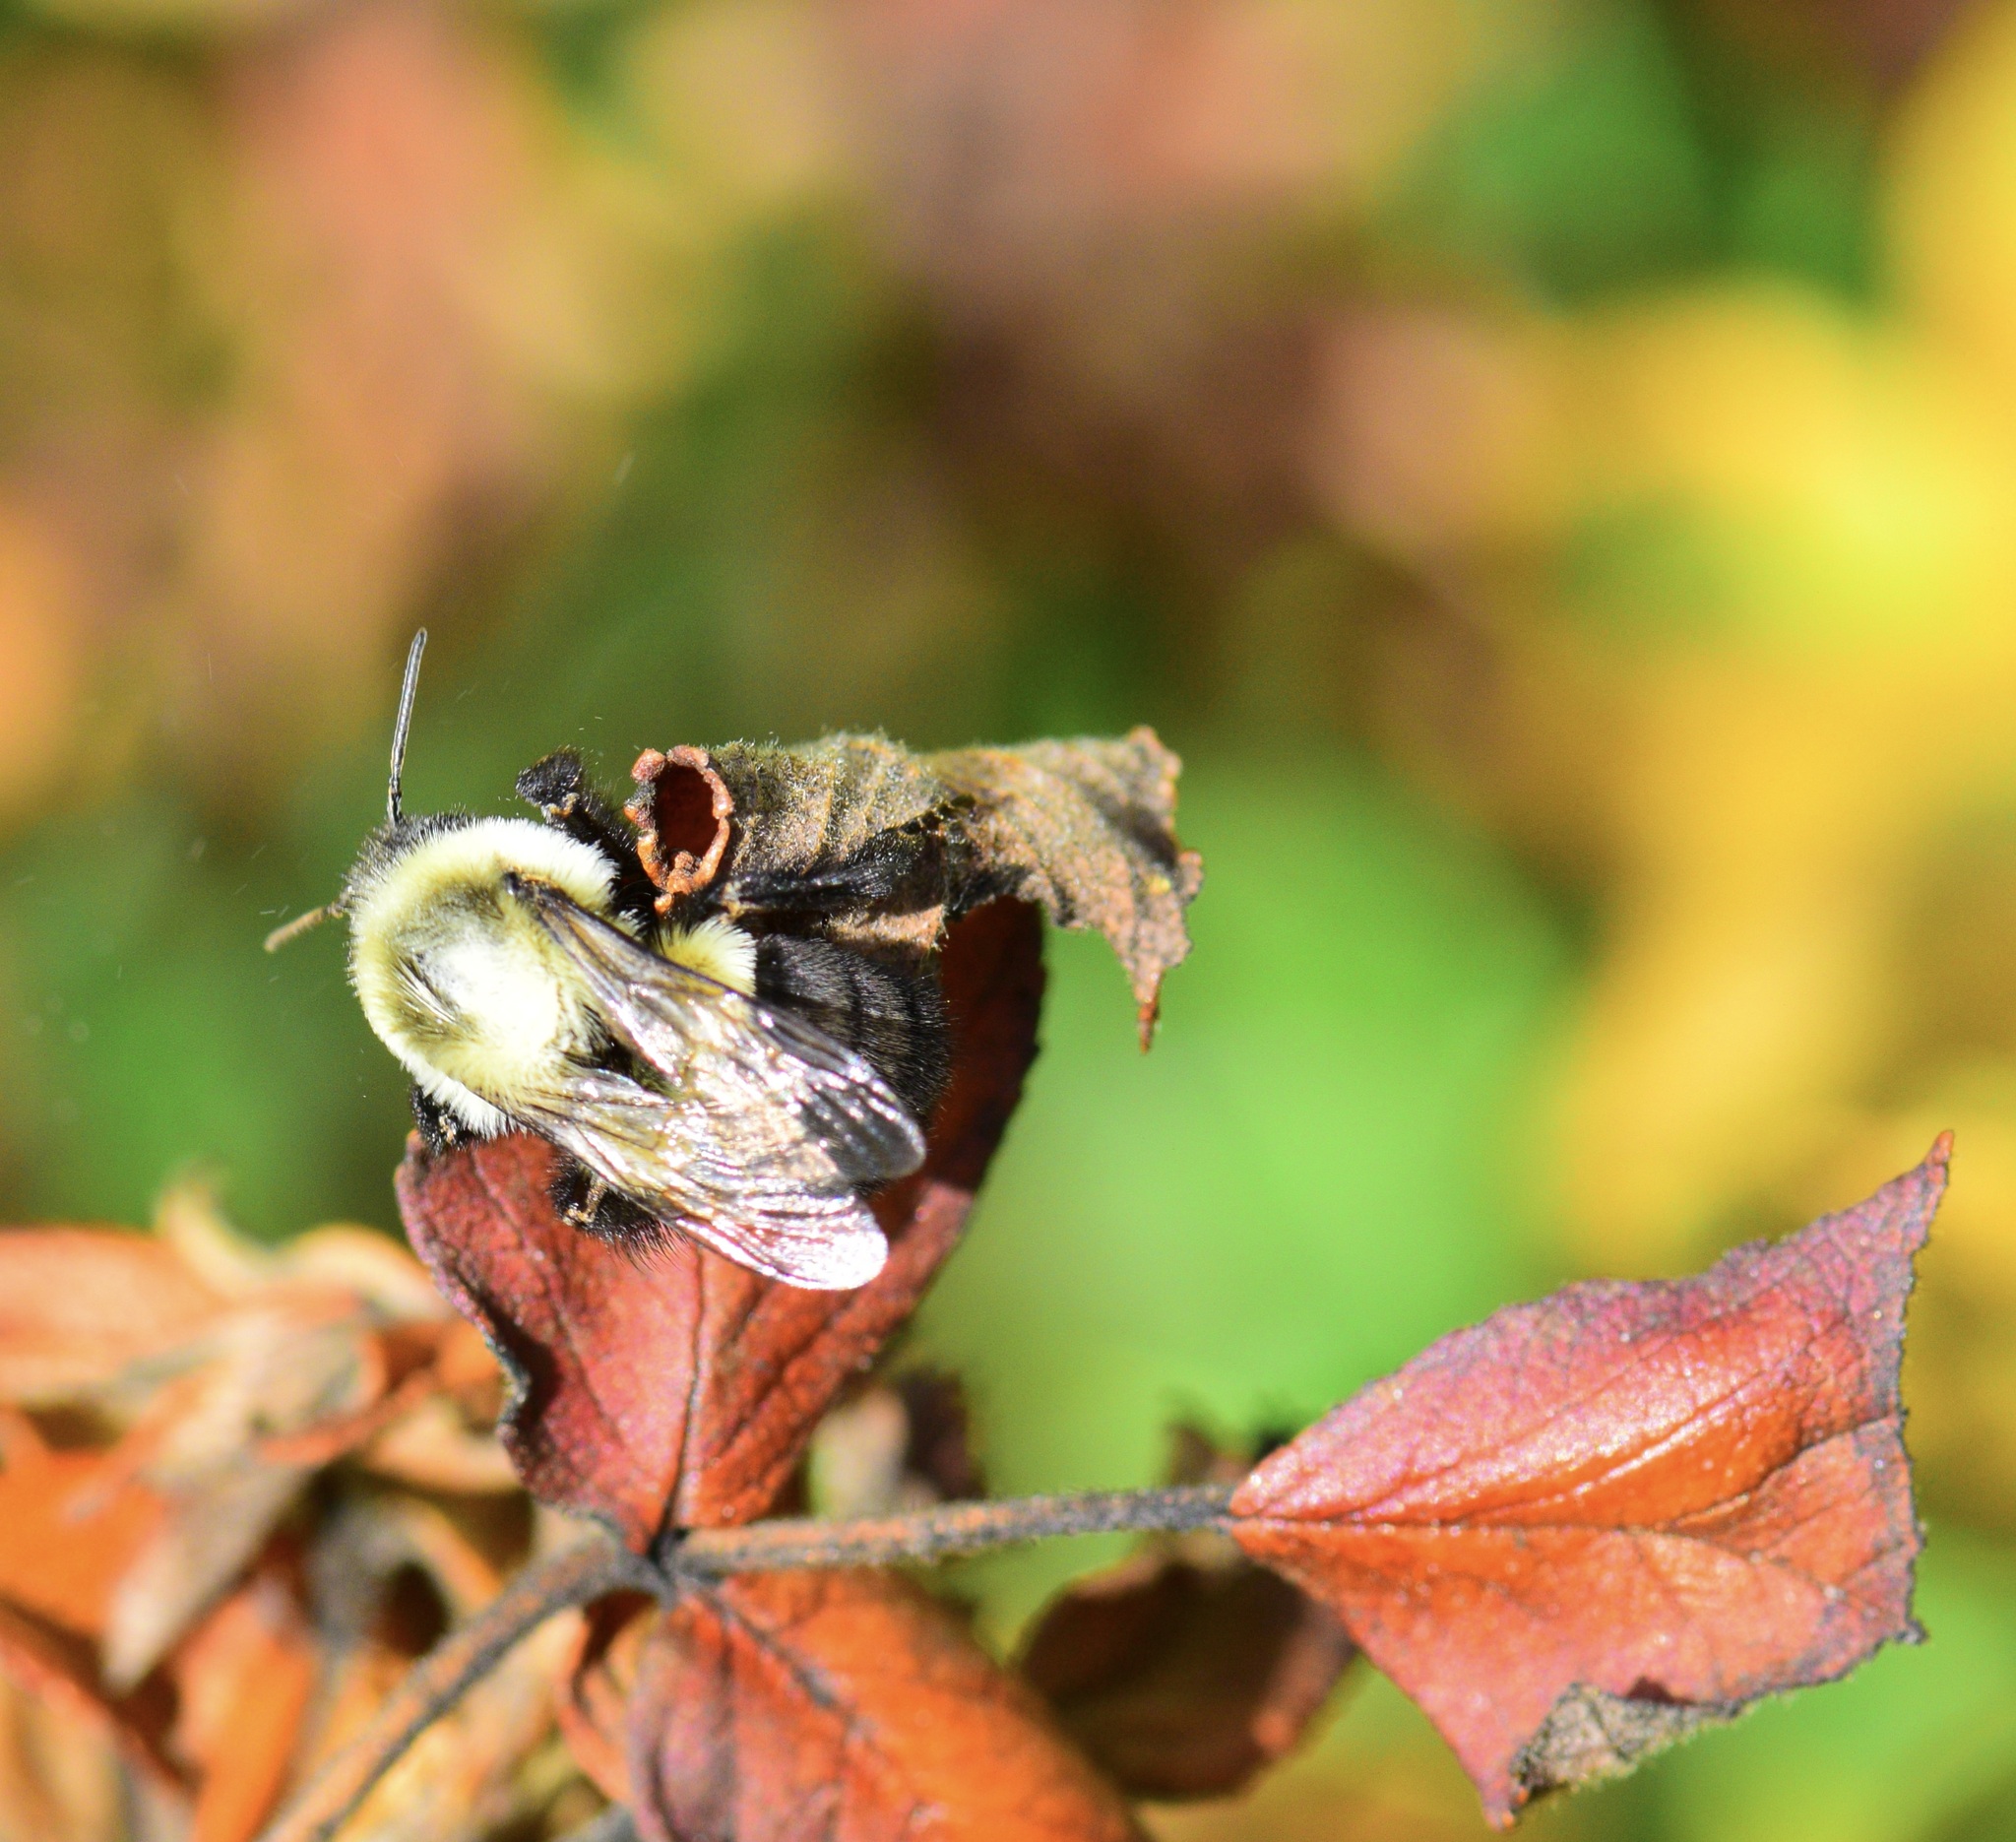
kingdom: Animalia
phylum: Arthropoda
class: Insecta
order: Hymenoptera
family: Apidae
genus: Bombus
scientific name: Bombus impatiens
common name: Common eastern bumble bee
